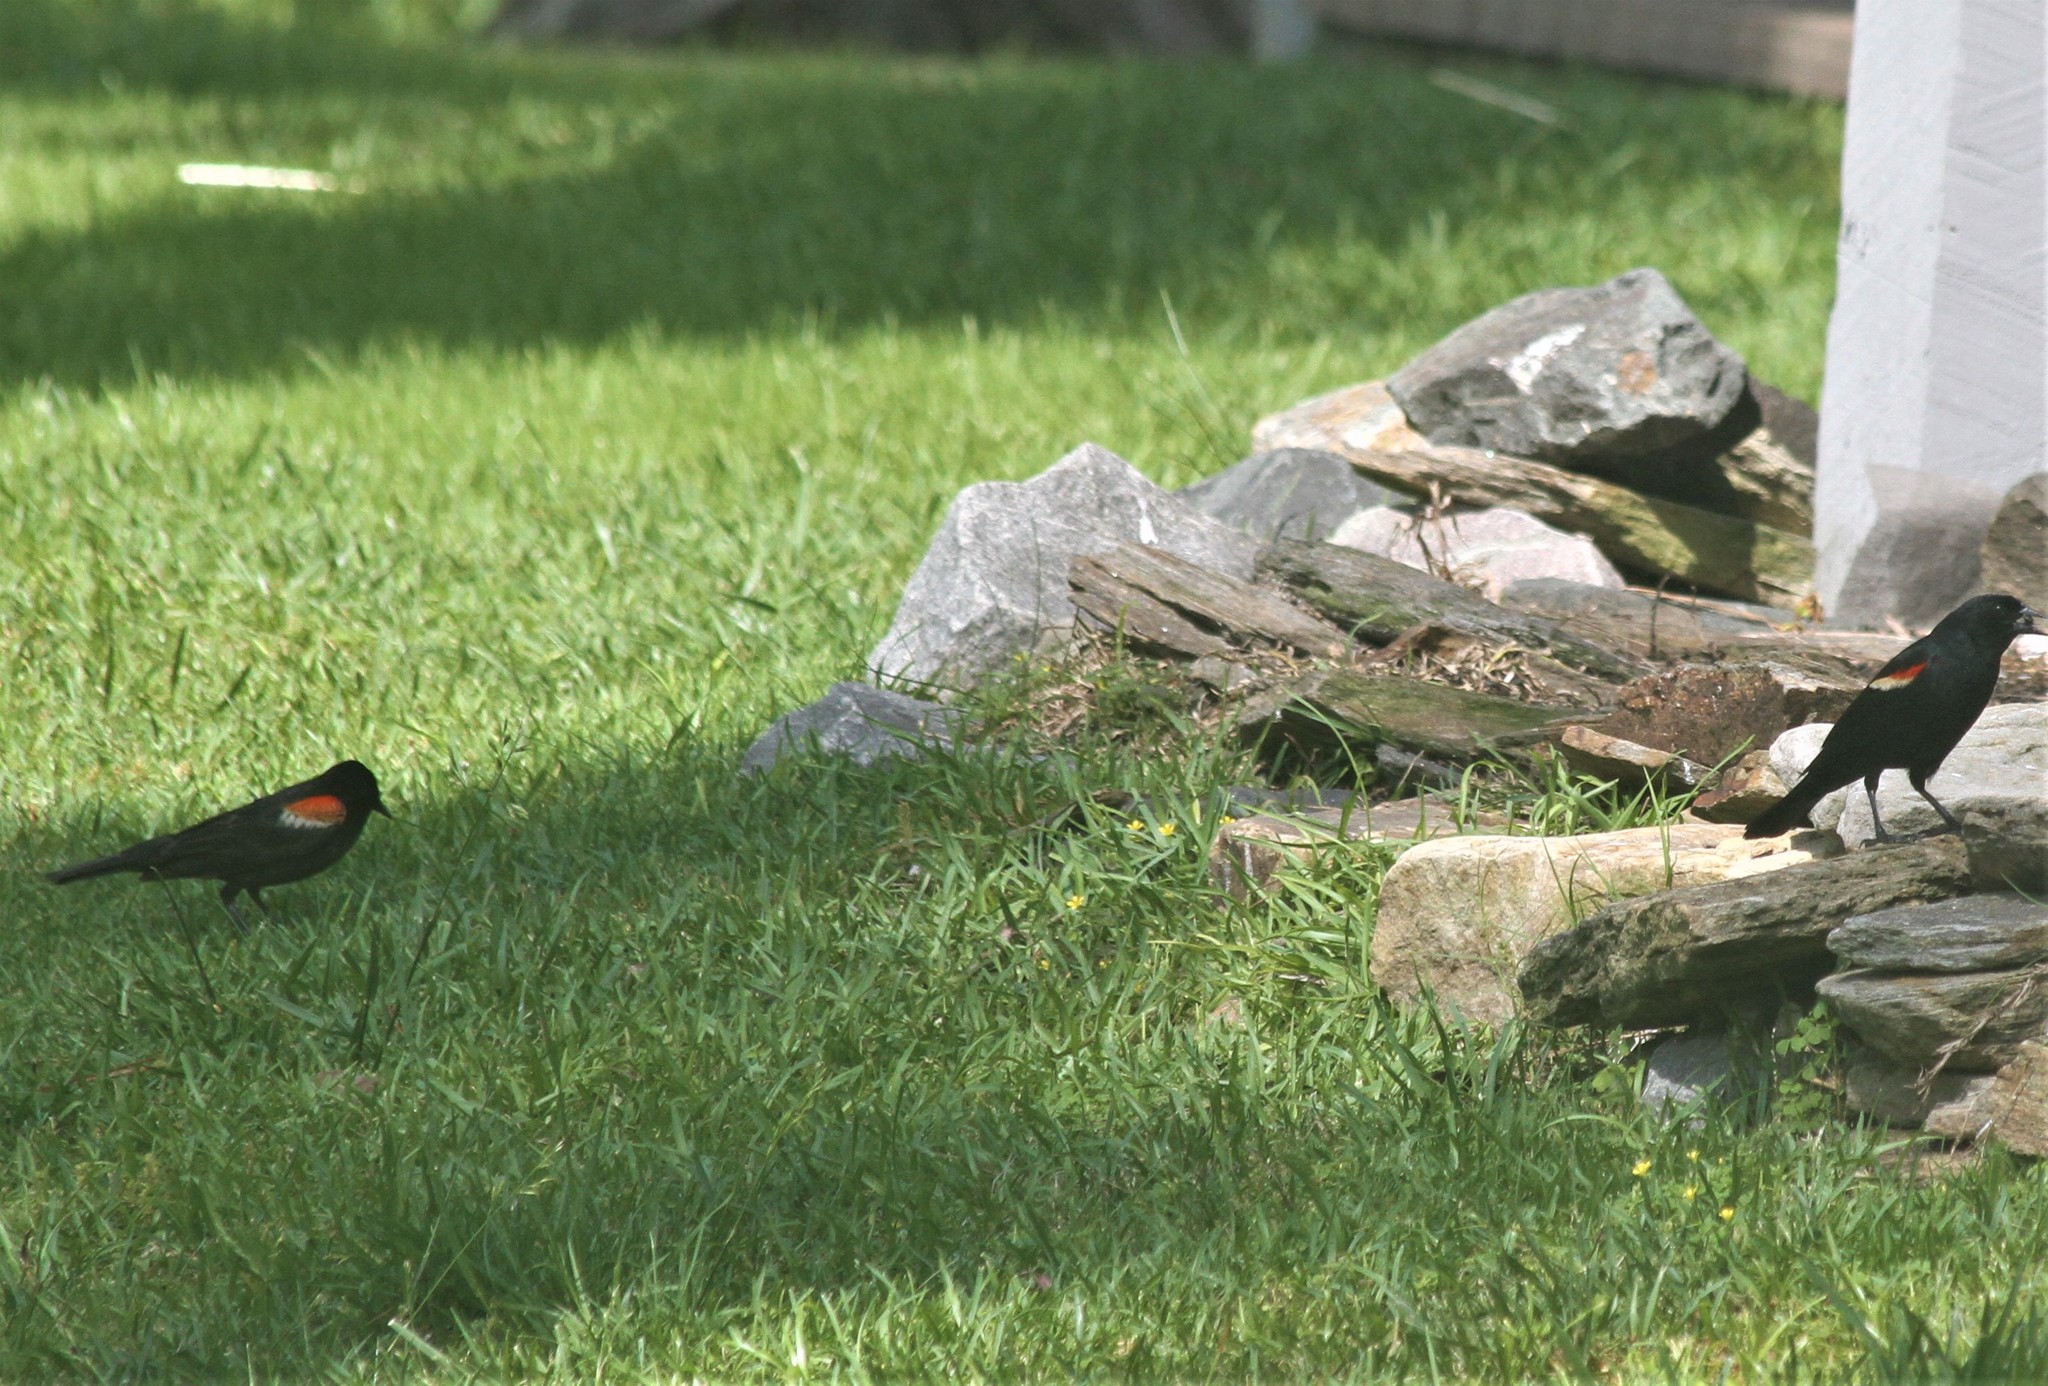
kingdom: Animalia
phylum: Chordata
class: Aves
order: Passeriformes
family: Icteridae
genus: Agelaius
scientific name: Agelaius phoeniceus
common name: Red-winged blackbird
